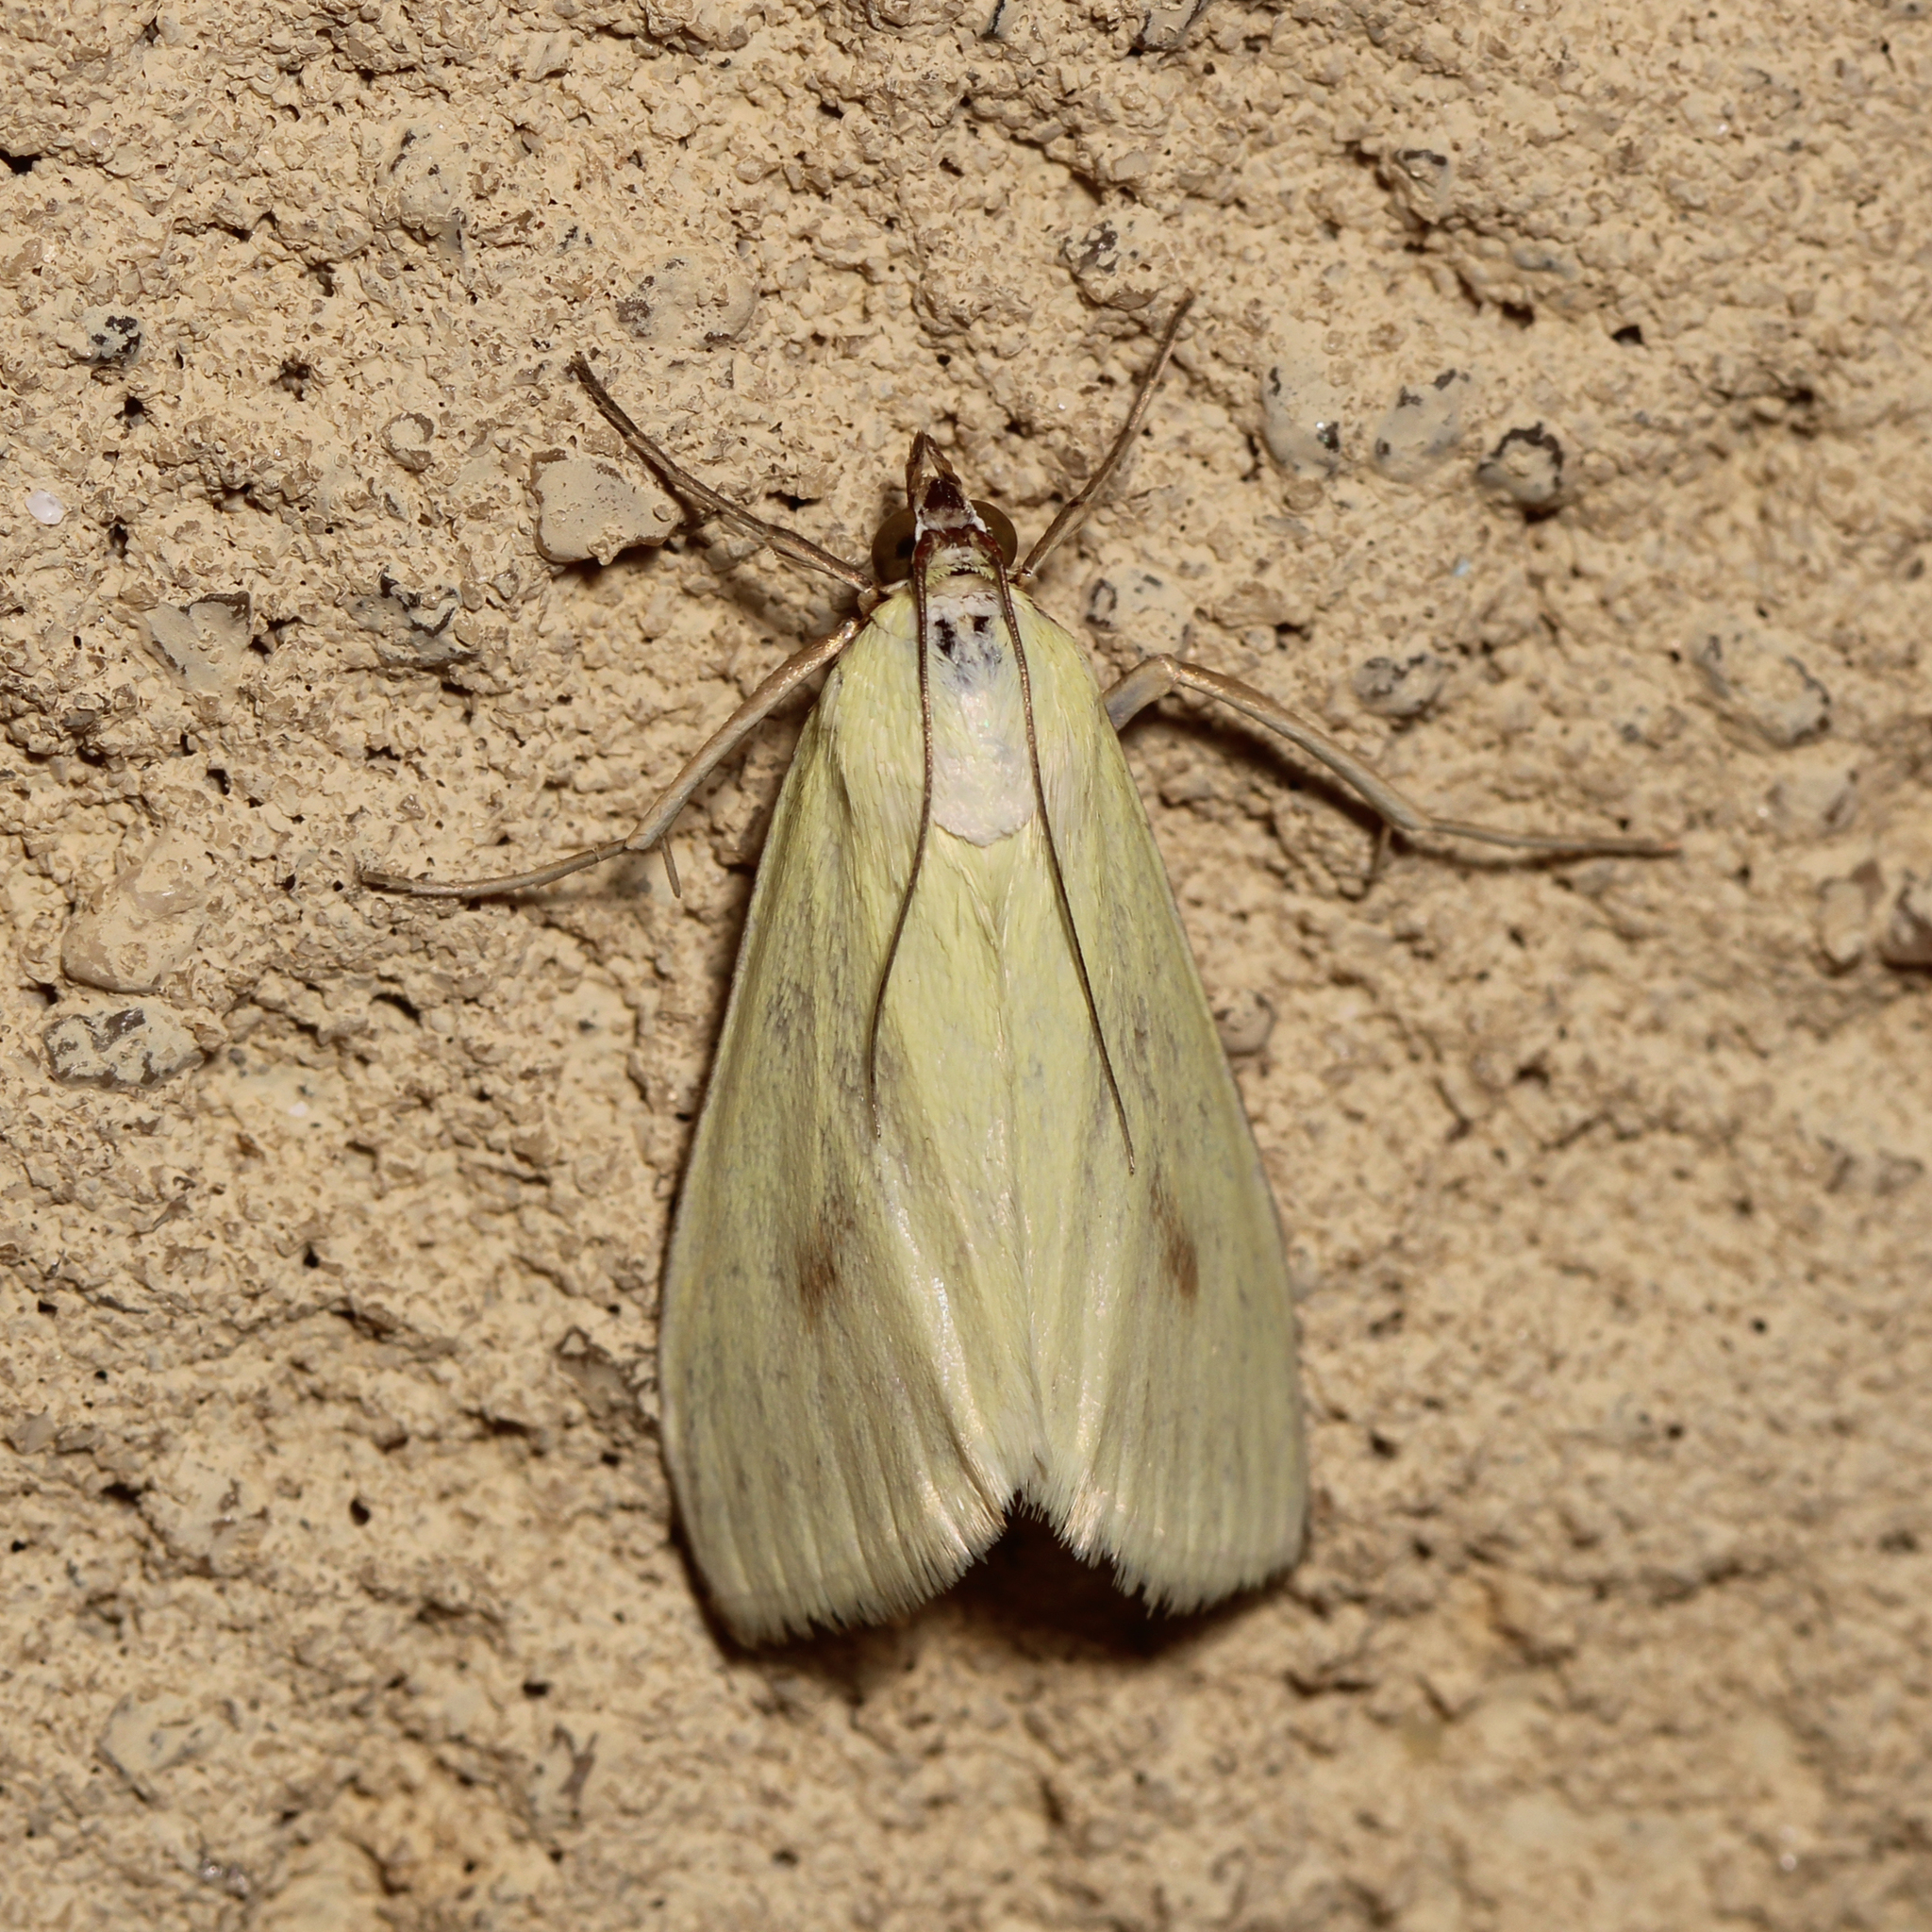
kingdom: Animalia
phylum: Arthropoda
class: Insecta
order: Lepidoptera
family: Crambidae
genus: Sitochroa
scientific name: Sitochroa palealis
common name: Greenish-yellow sitochroa moth
